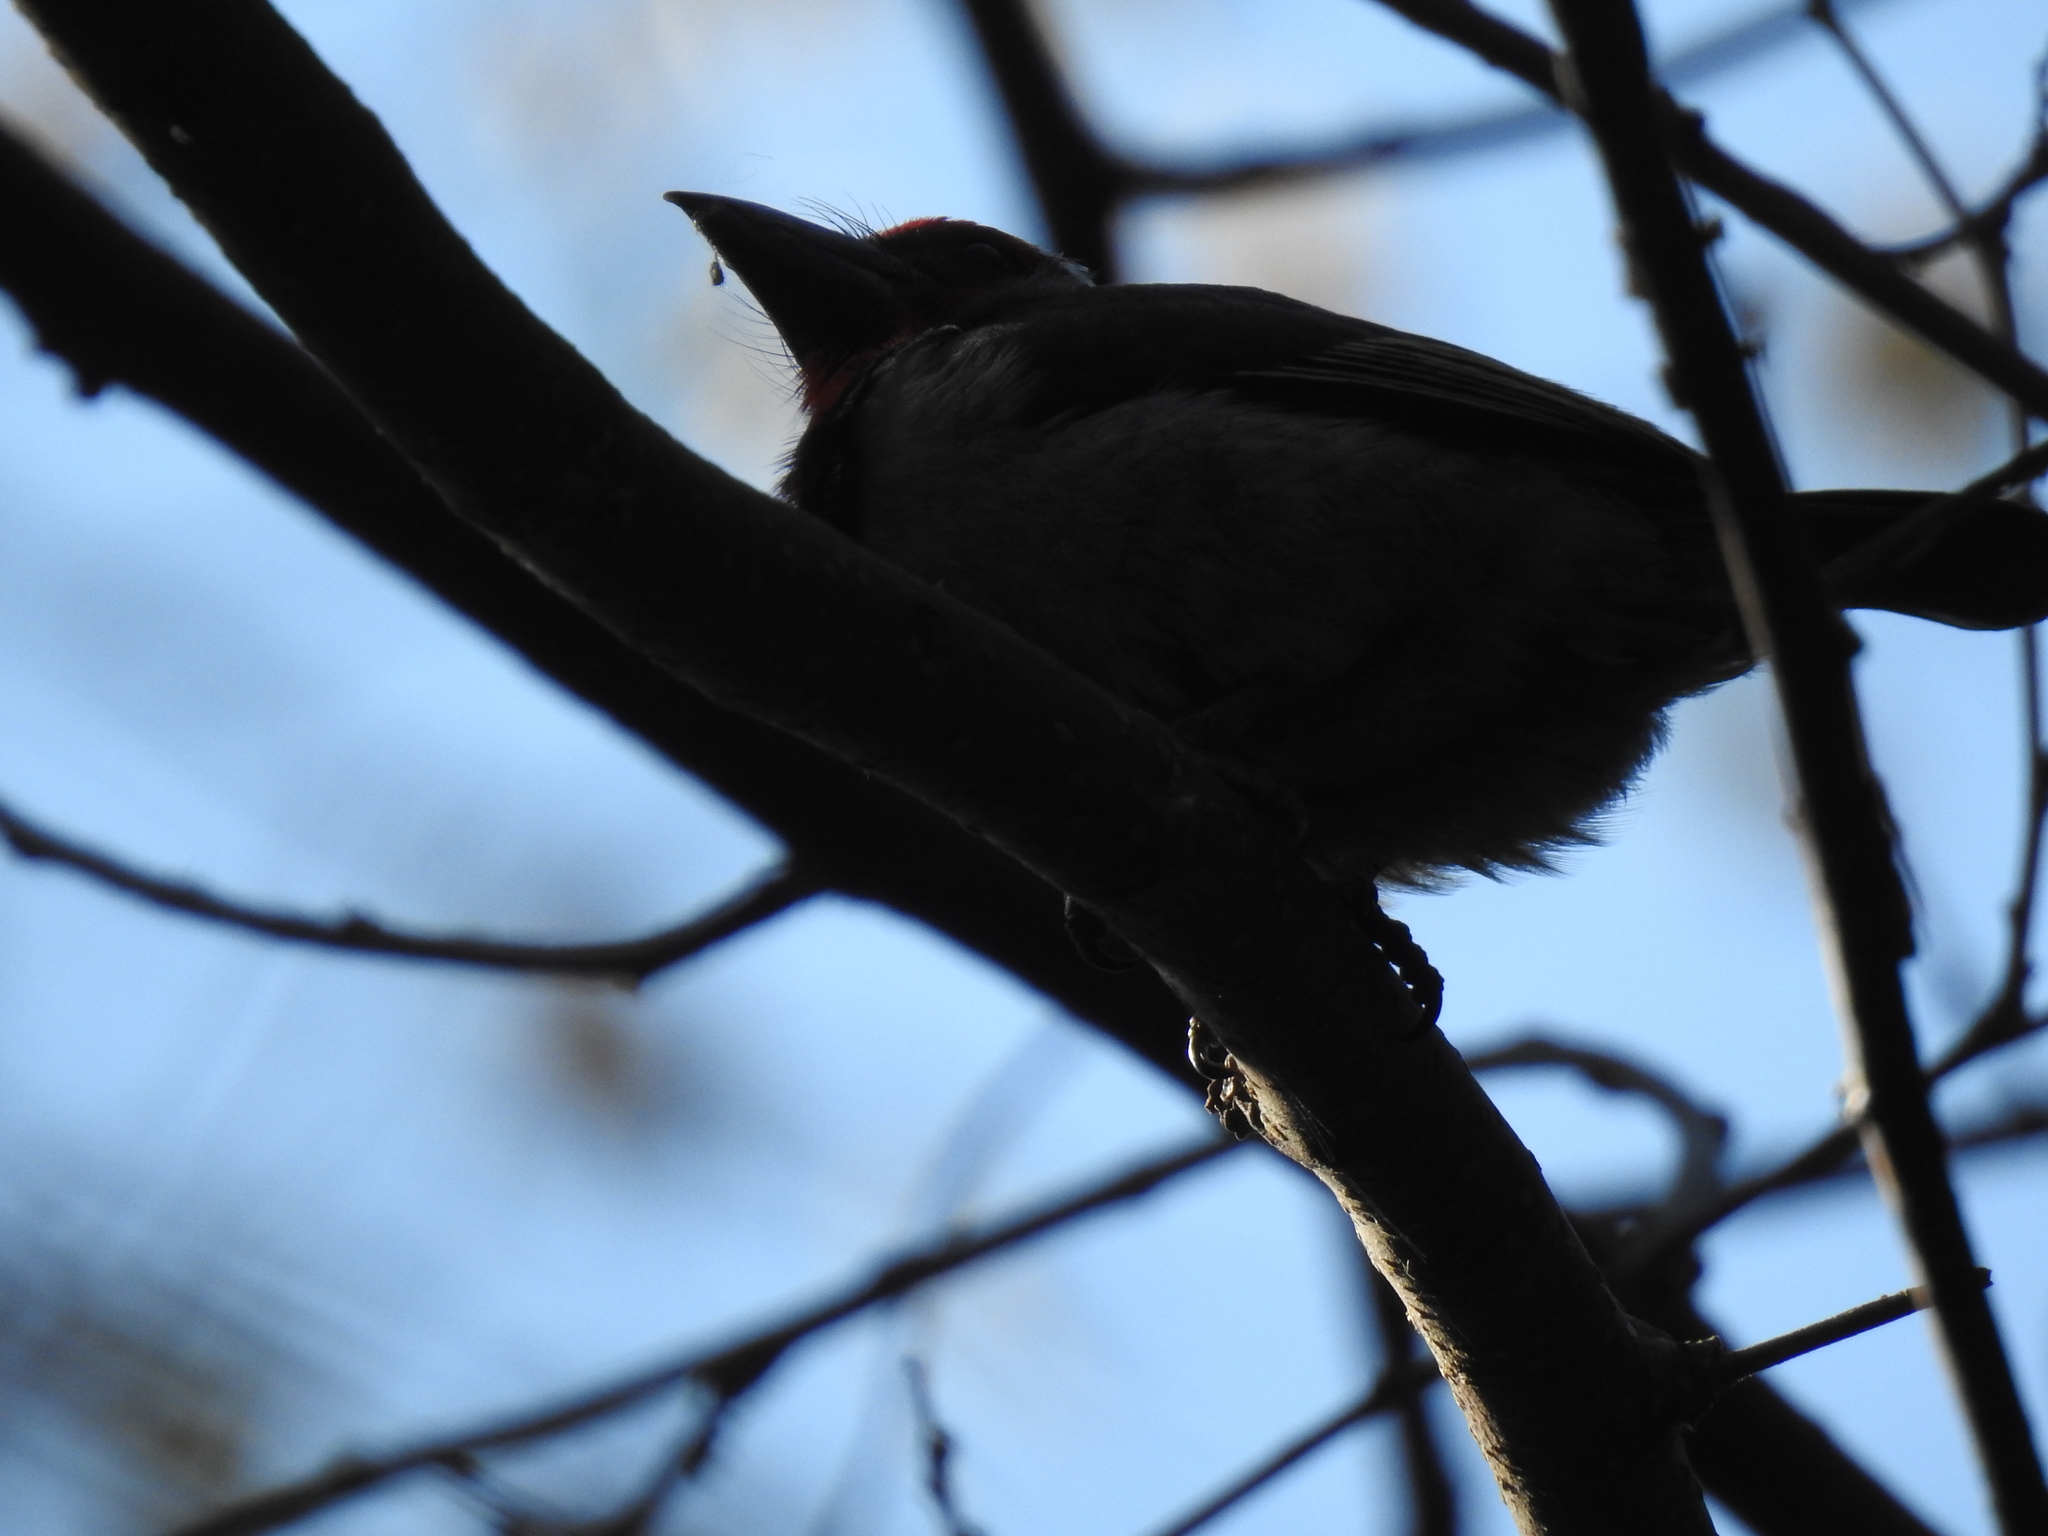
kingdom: Animalia
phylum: Chordata
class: Aves
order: Piciformes
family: Lybiidae
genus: Lybius
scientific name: Lybius torquatus
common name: Black-collared barbet
